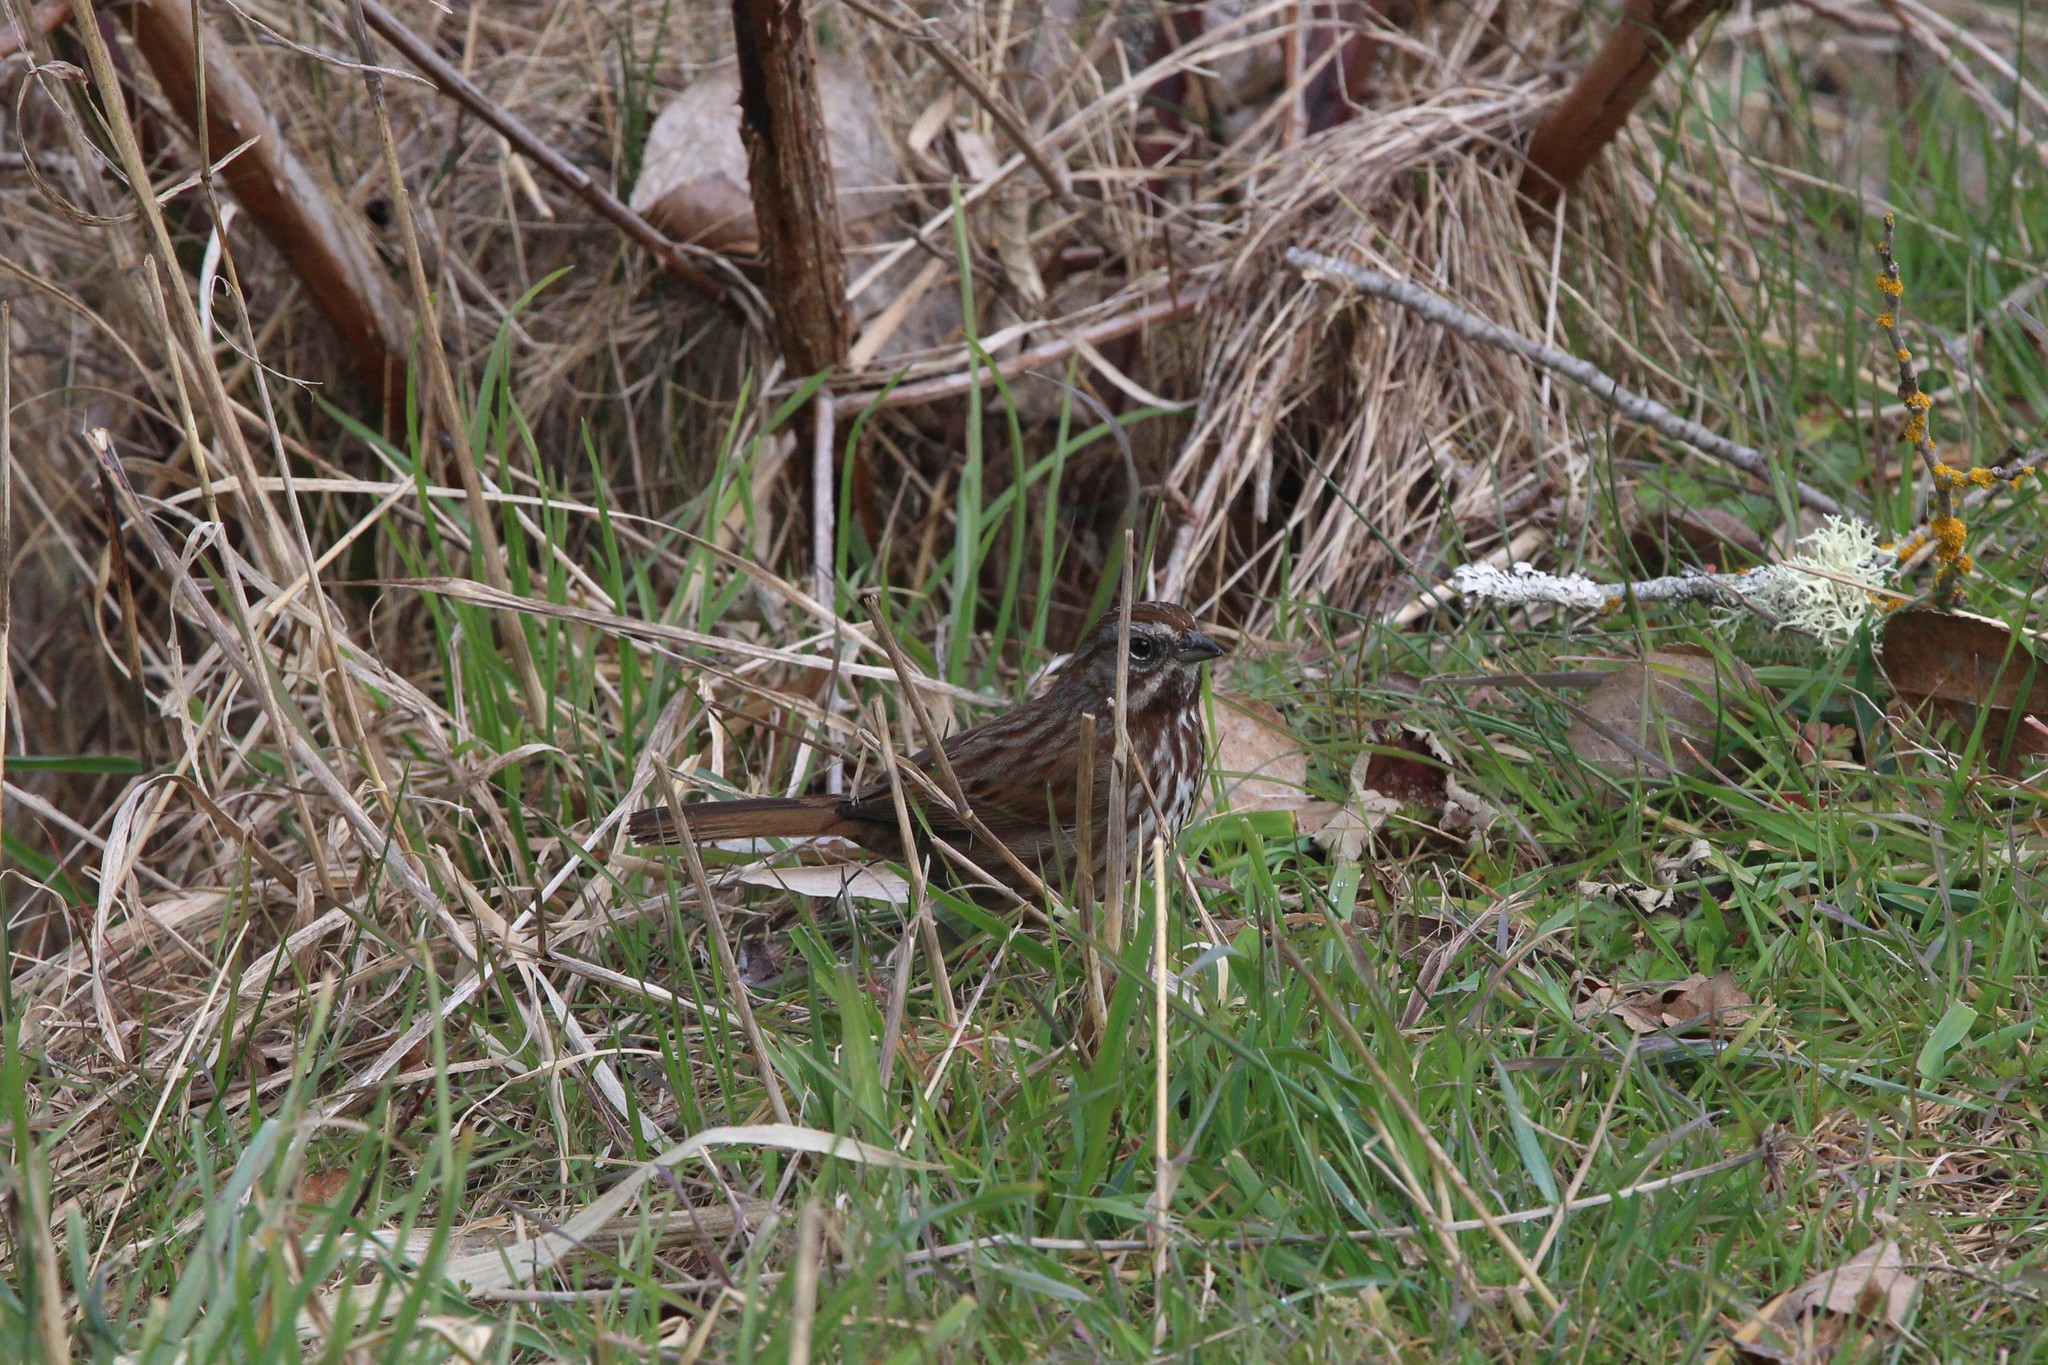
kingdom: Animalia
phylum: Chordata
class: Aves
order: Passeriformes
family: Passerellidae
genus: Melospiza
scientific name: Melospiza melodia
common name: Song sparrow
